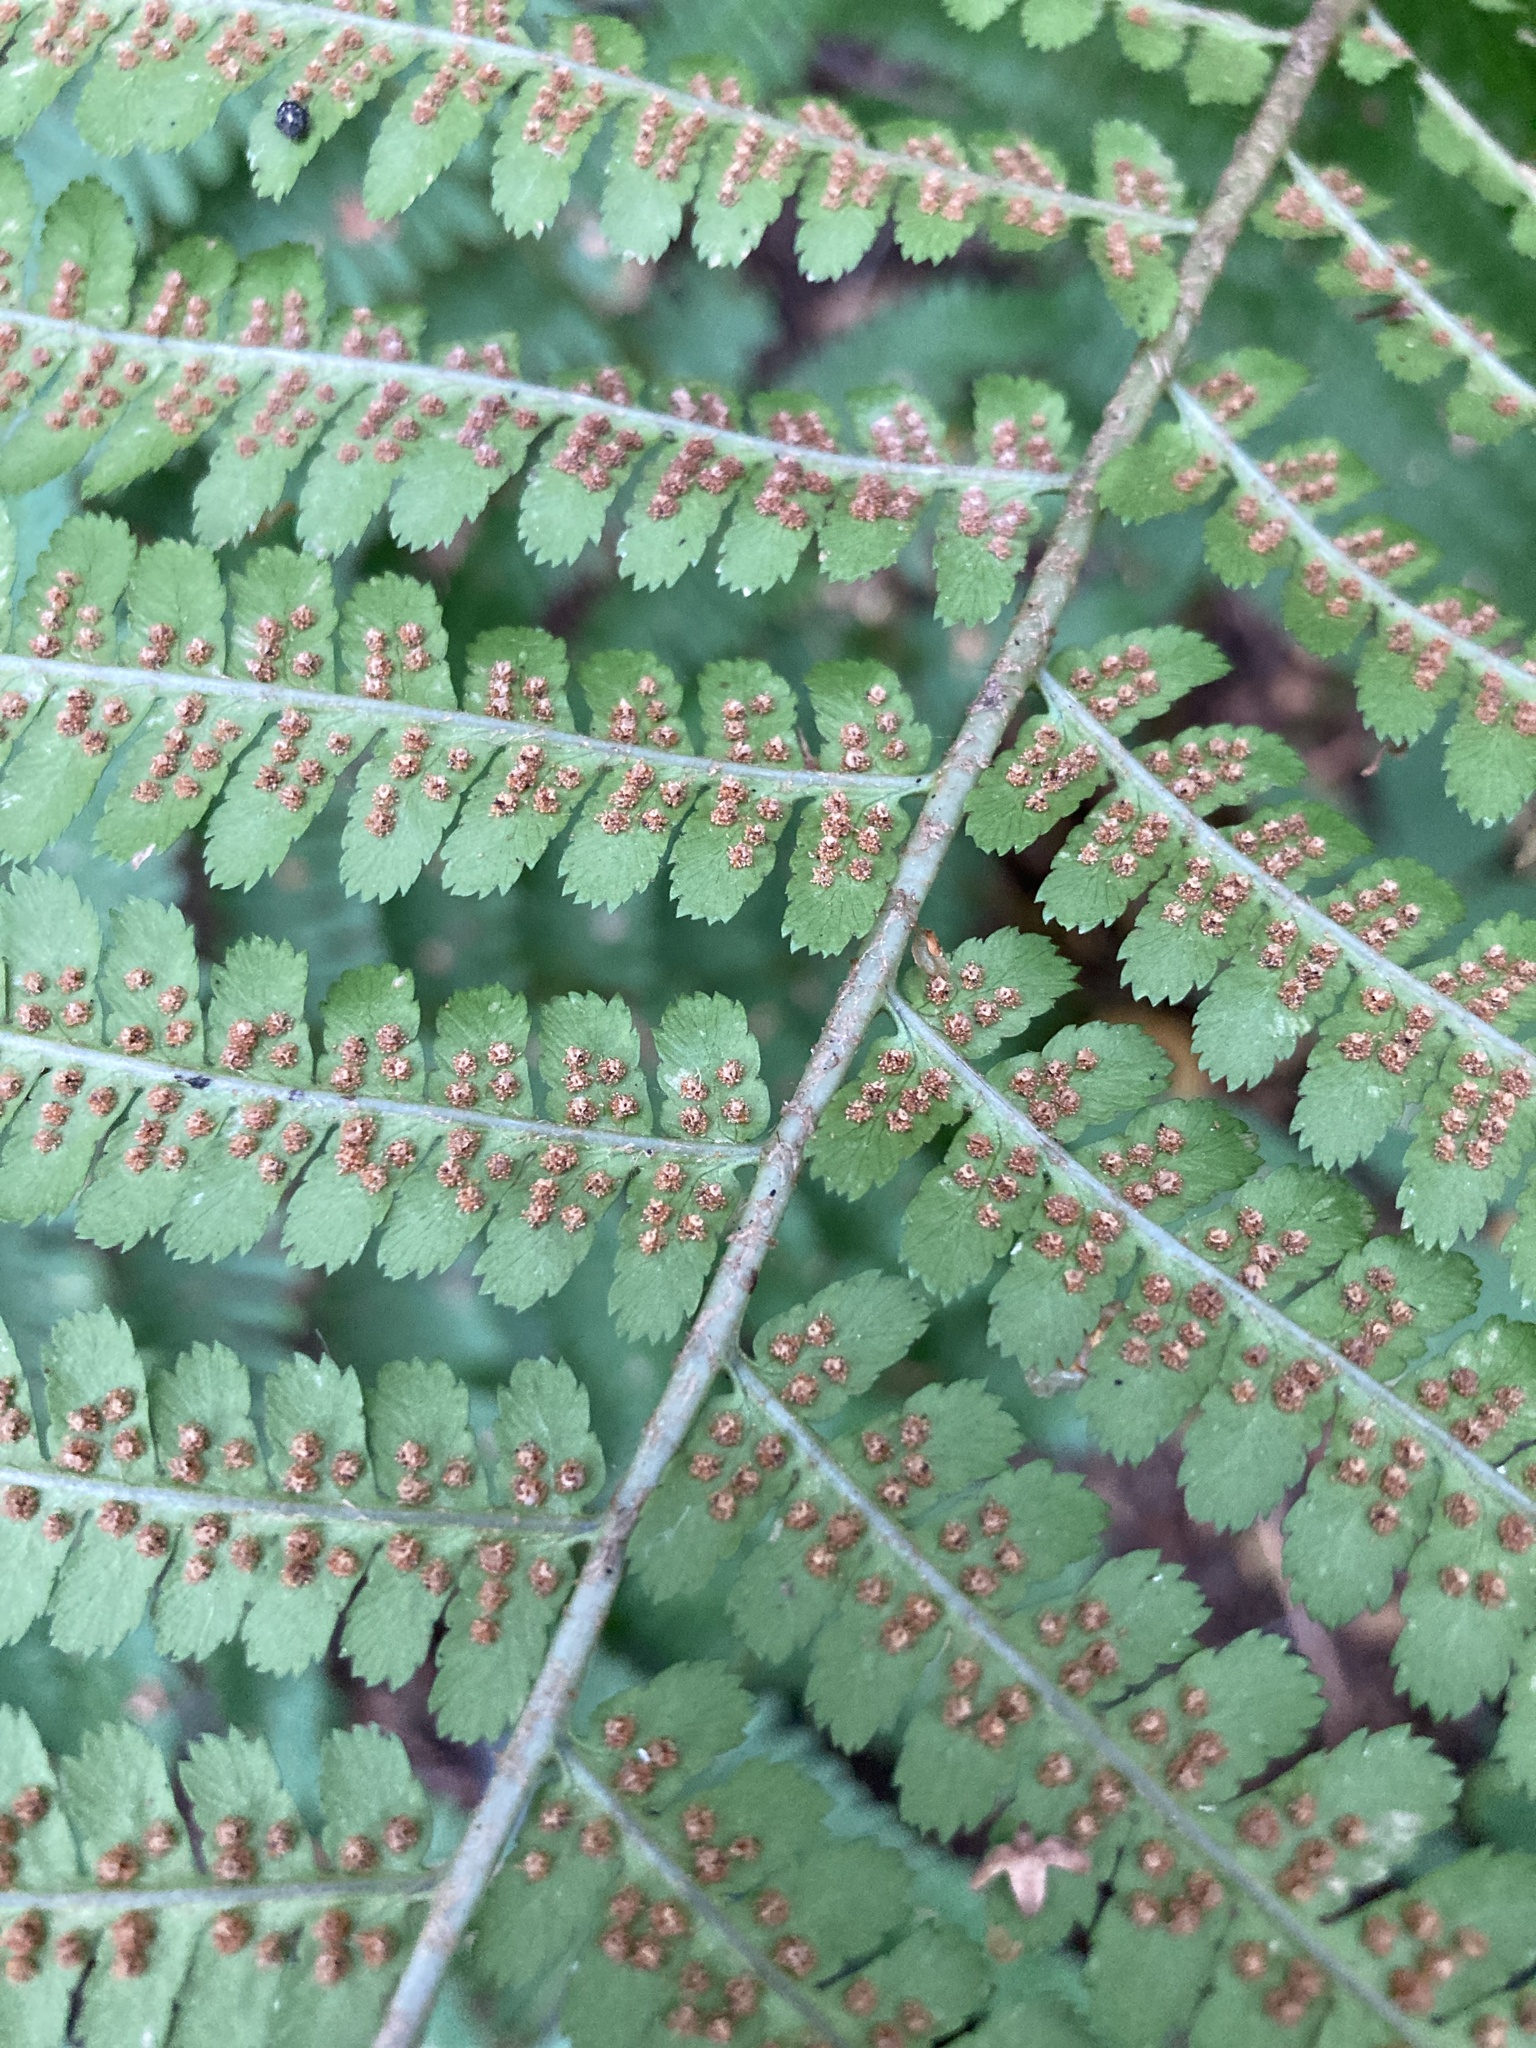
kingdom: Plantae
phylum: Tracheophyta
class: Polypodiopsida
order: Polypodiales
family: Dryopteridaceae
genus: Dryopteris
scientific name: Dryopteris filix-mas
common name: Male fern
